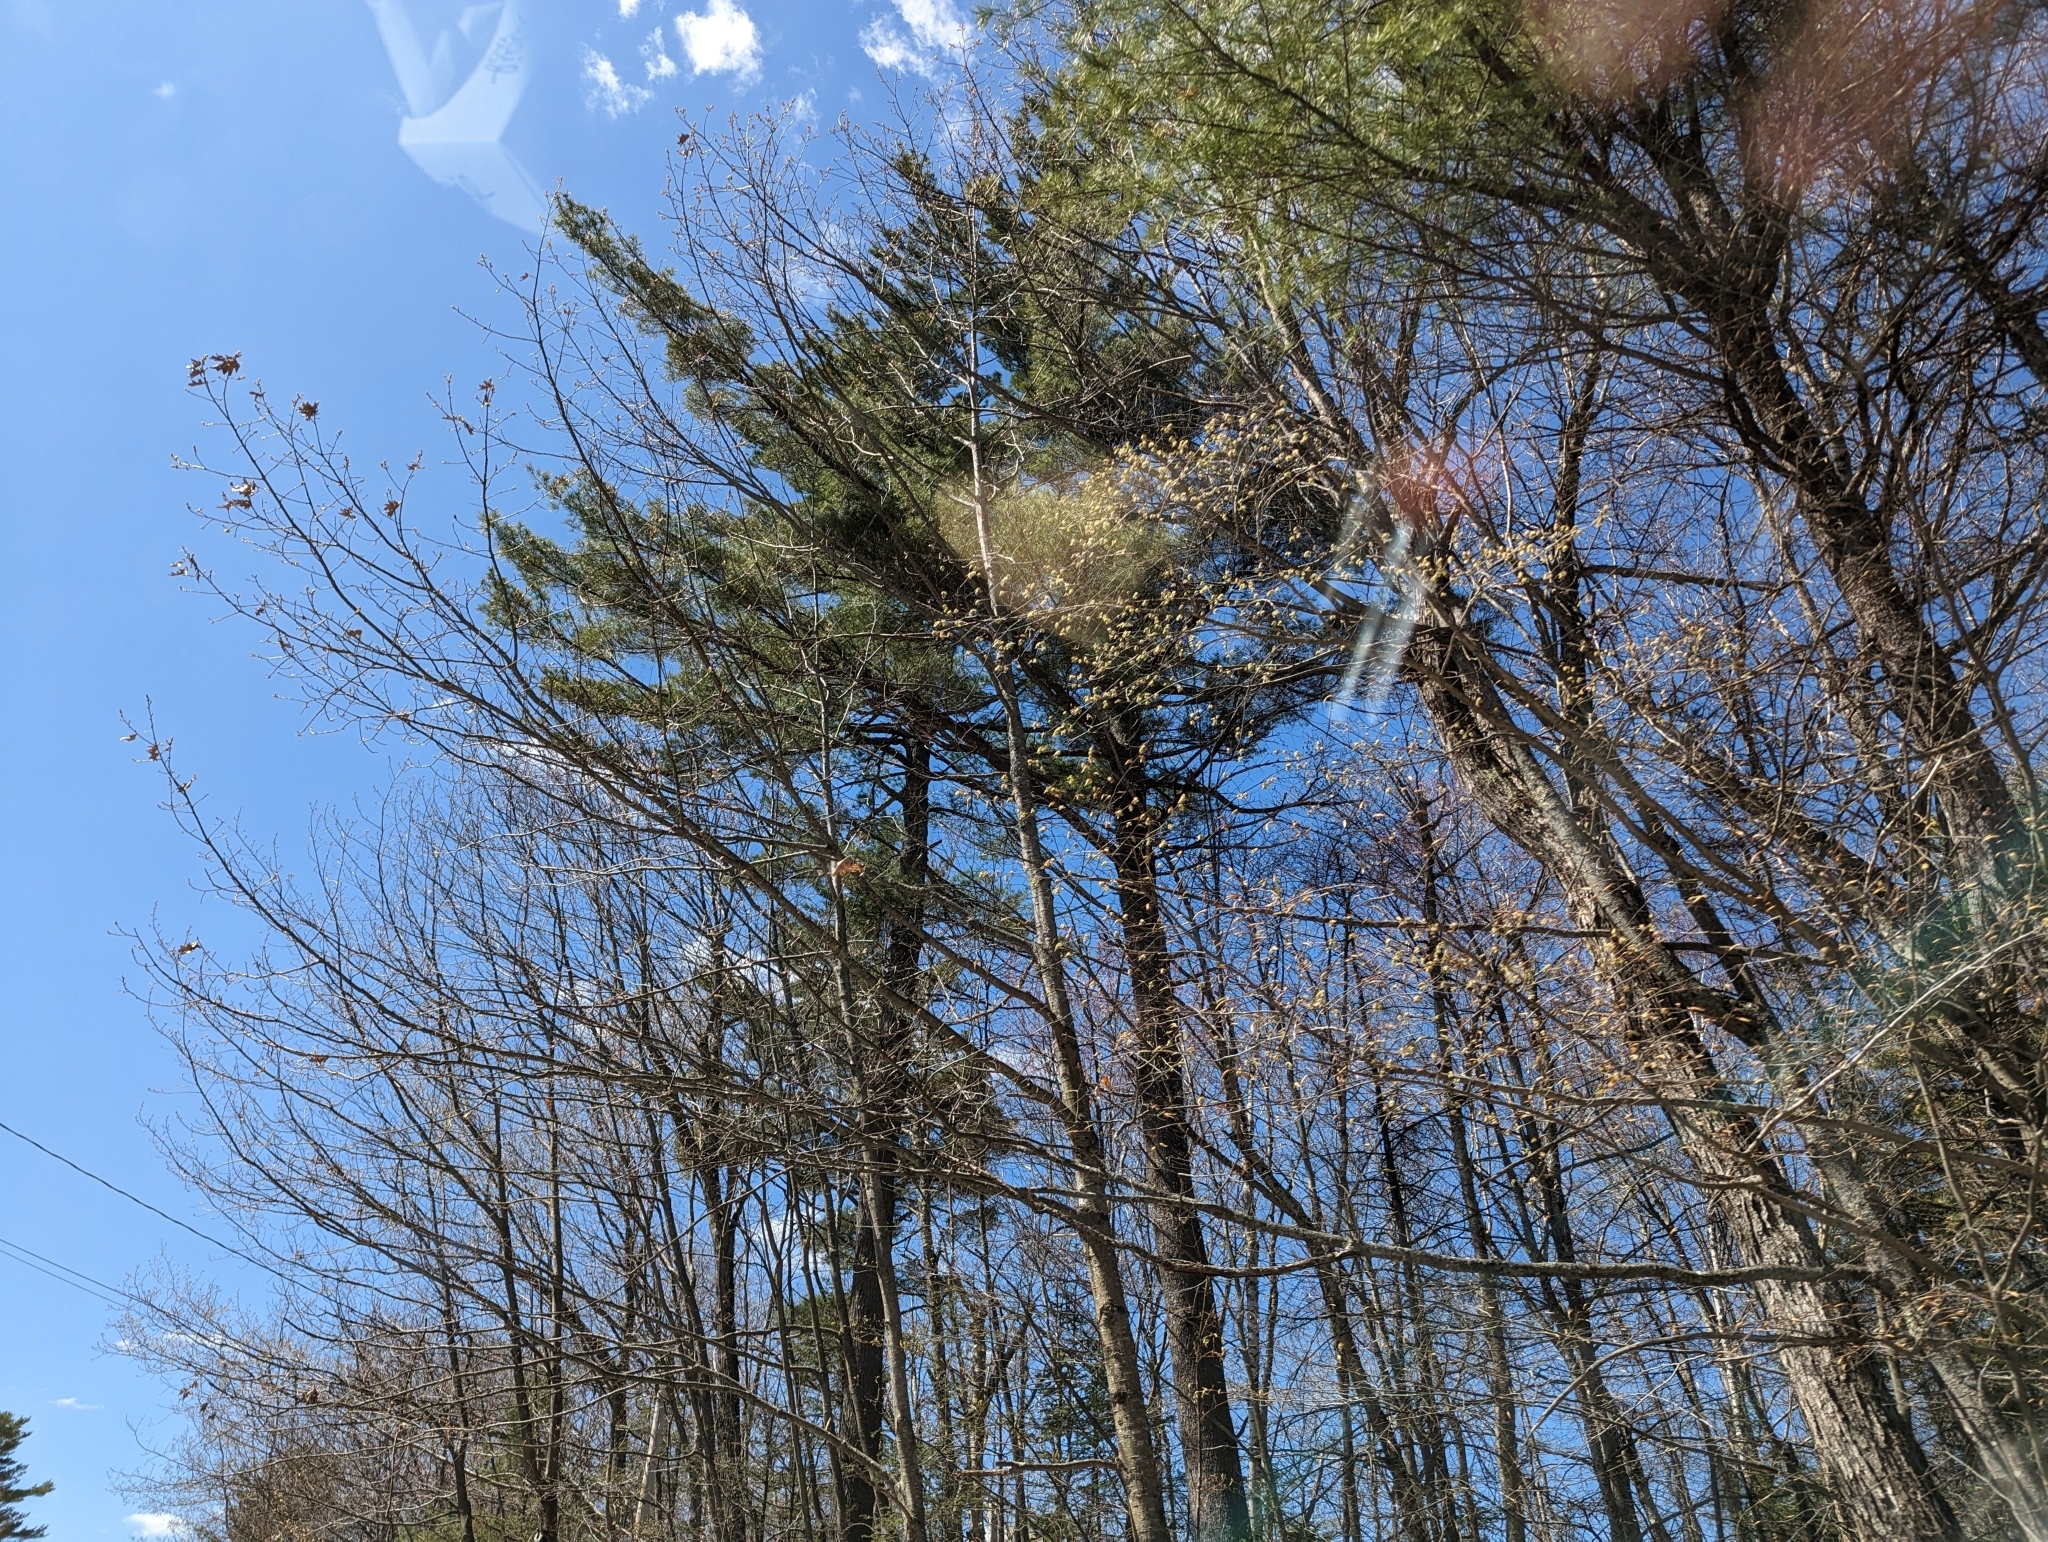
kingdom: Plantae
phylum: Tracheophyta
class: Pinopsida
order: Pinales
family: Pinaceae
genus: Pinus
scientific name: Pinus strobus
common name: Weymouth pine
